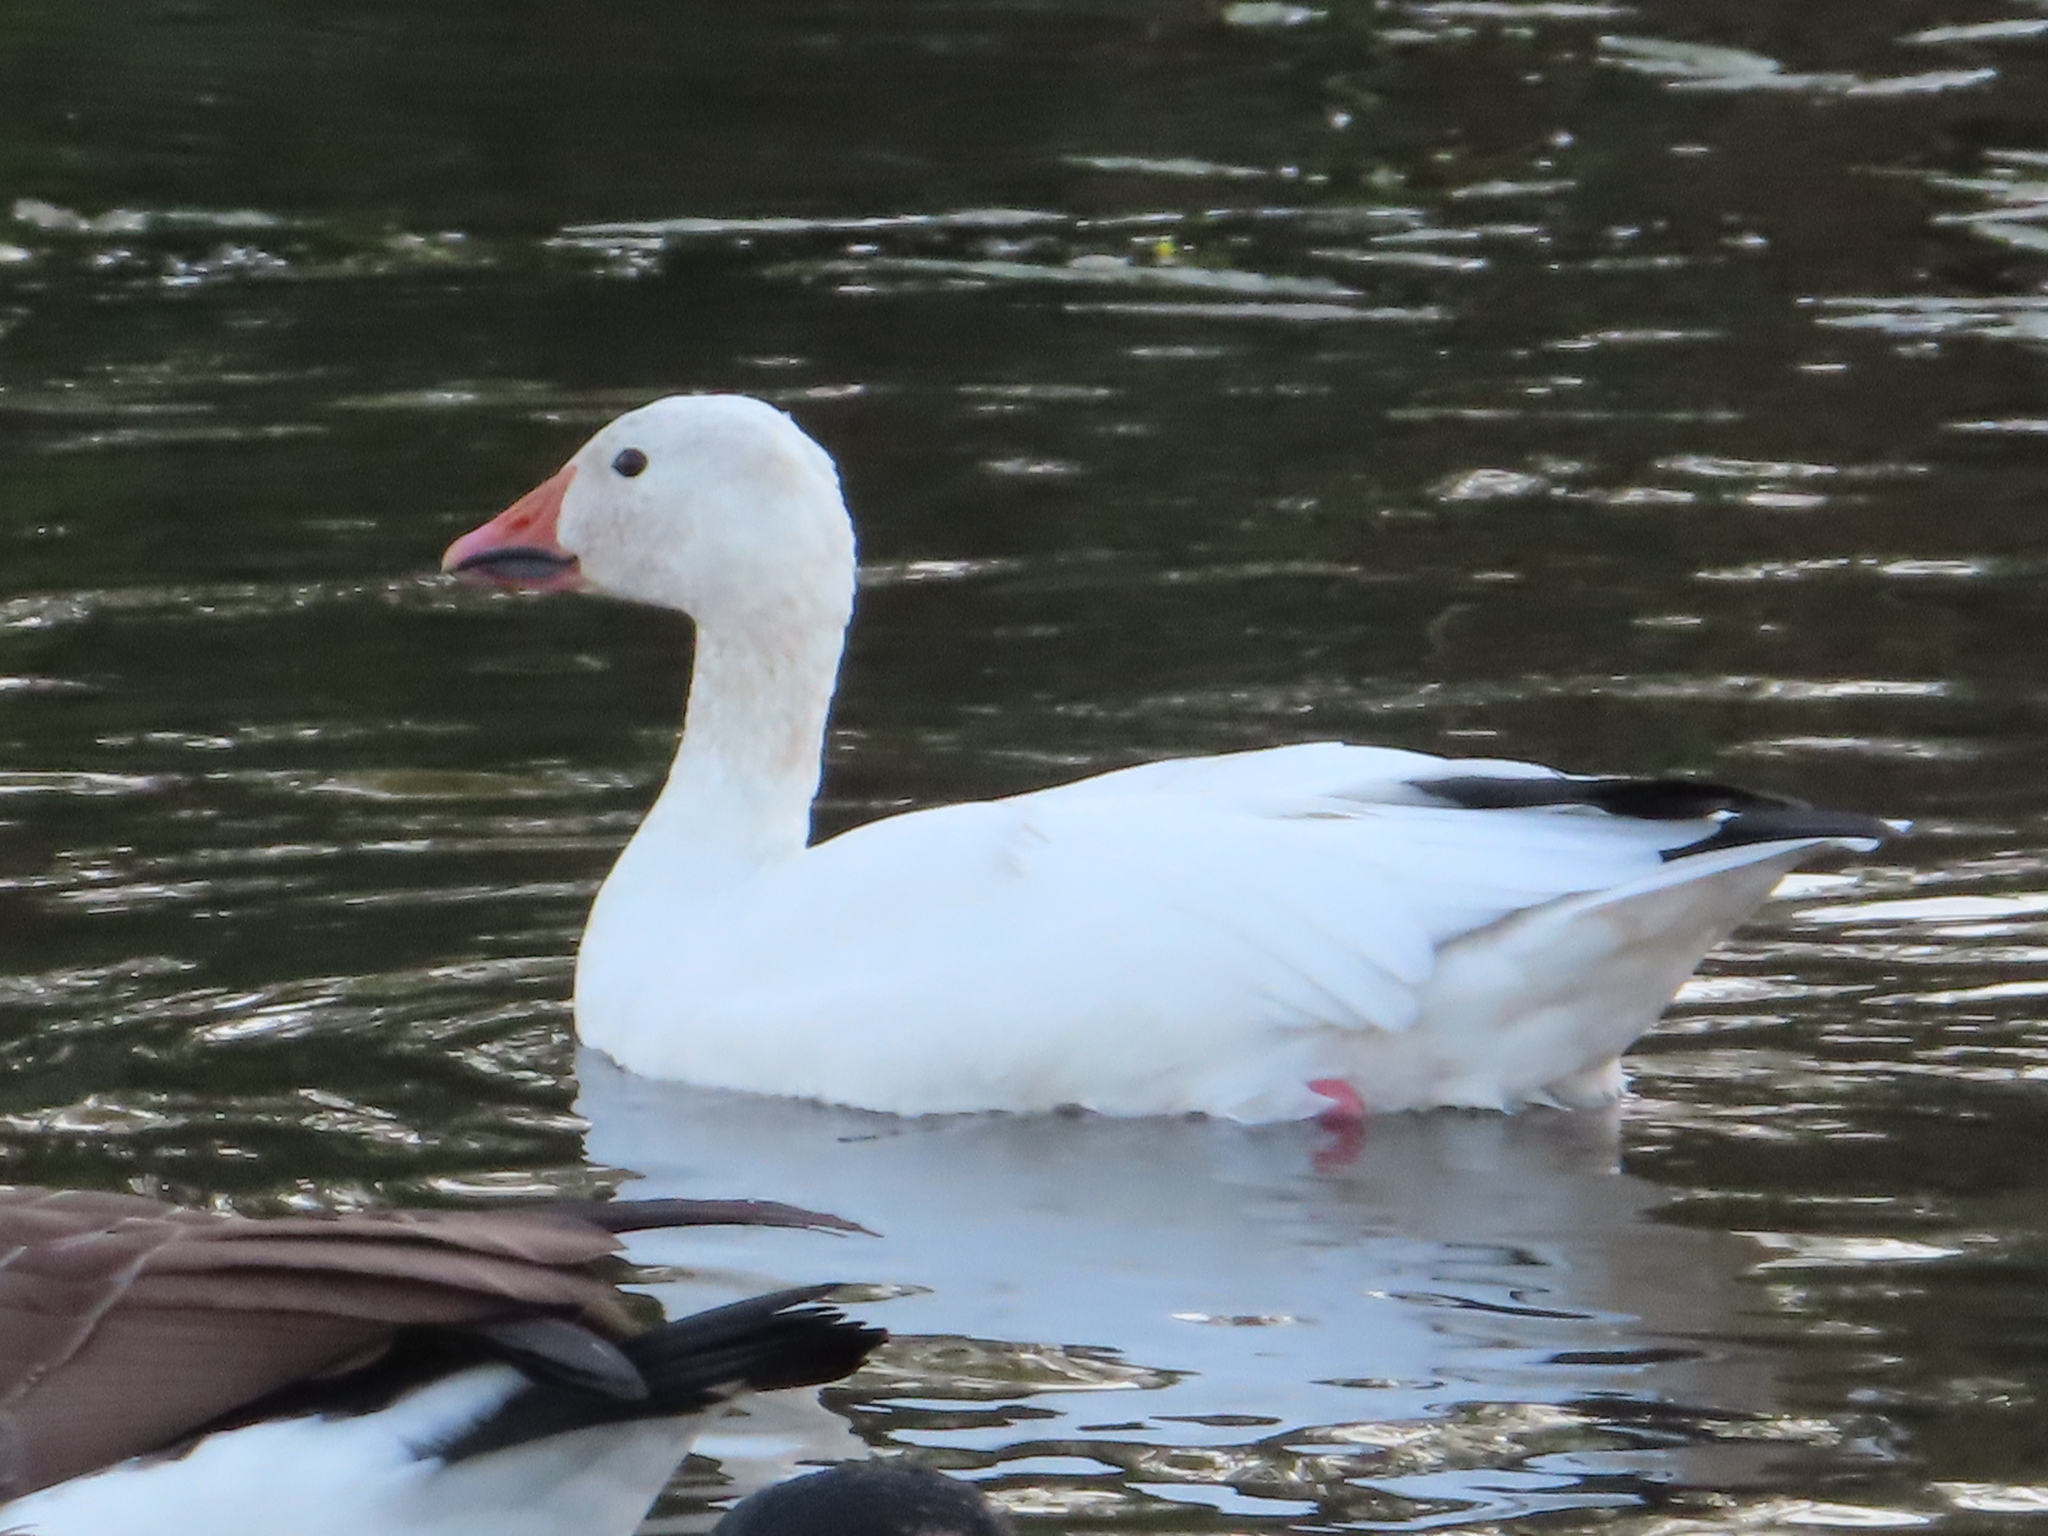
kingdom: Animalia
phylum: Chordata
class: Aves
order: Anseriformes
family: Anatidae
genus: Anser
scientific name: Anser caerulescens
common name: Snow goose
